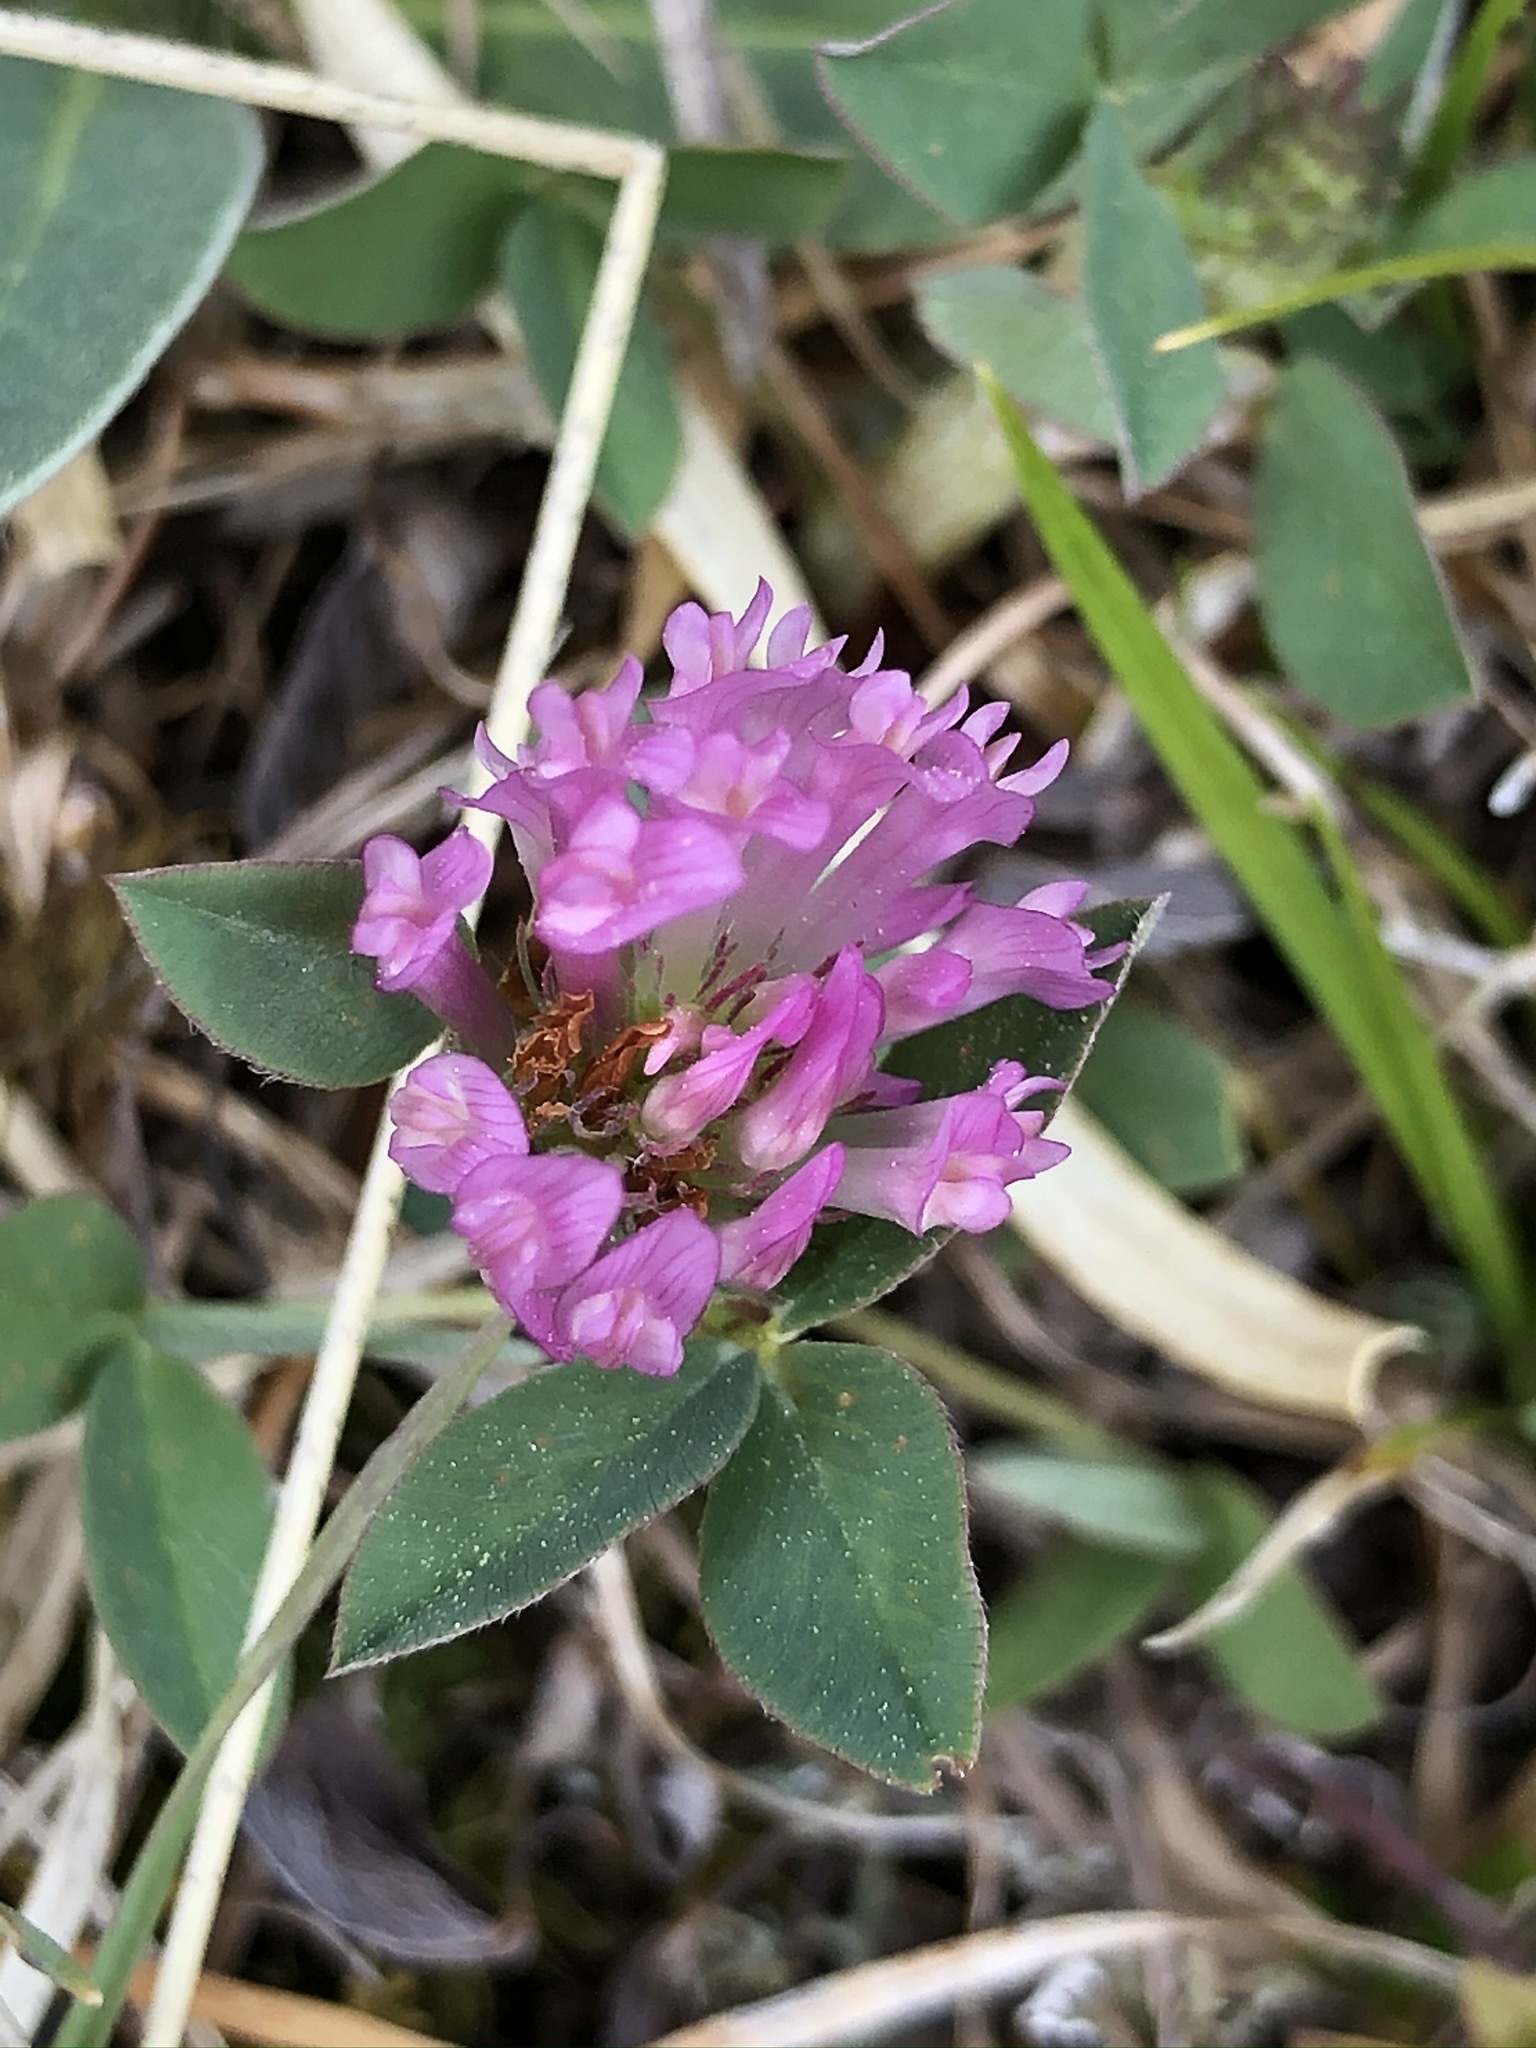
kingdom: Plantae
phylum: Tracheophyta
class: Magnoliopsida
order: Fabales
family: Fabaceae
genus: Trifolium
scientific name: Trifolium pratense
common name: Red clover
